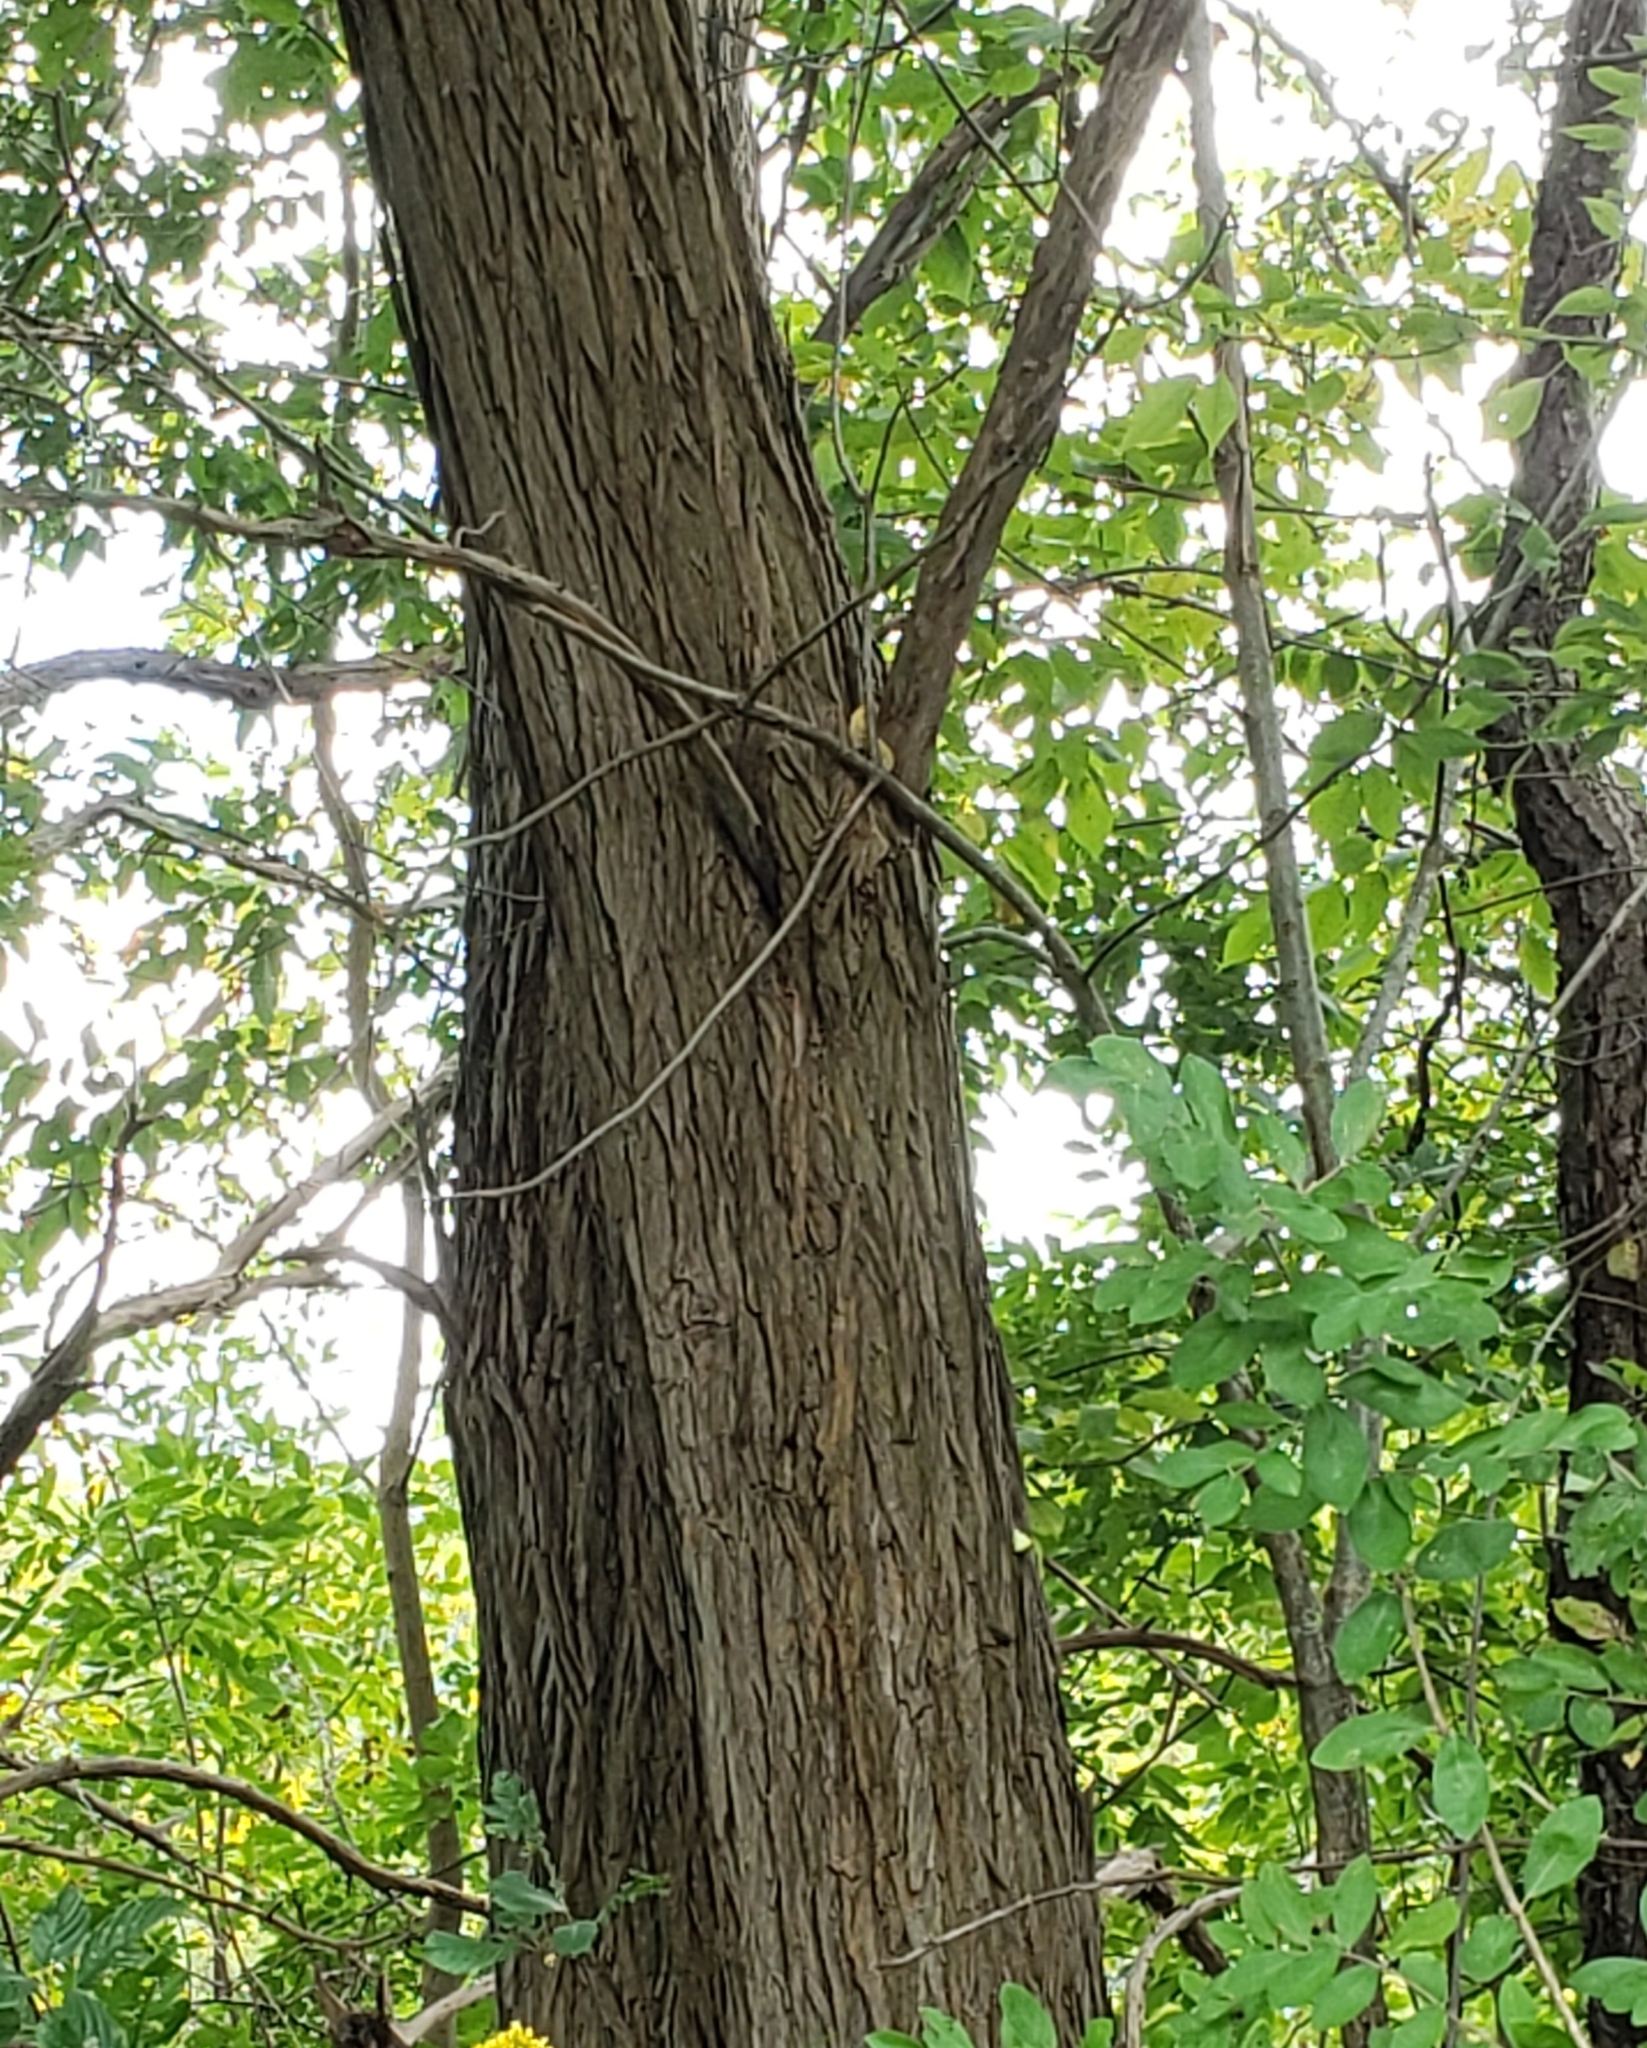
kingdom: Plantae
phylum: Tracheophyta
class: Magnoliopsida
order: Rosales
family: Moraceae
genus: Maclura
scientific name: Maclura pomifera
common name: Osage-orange
